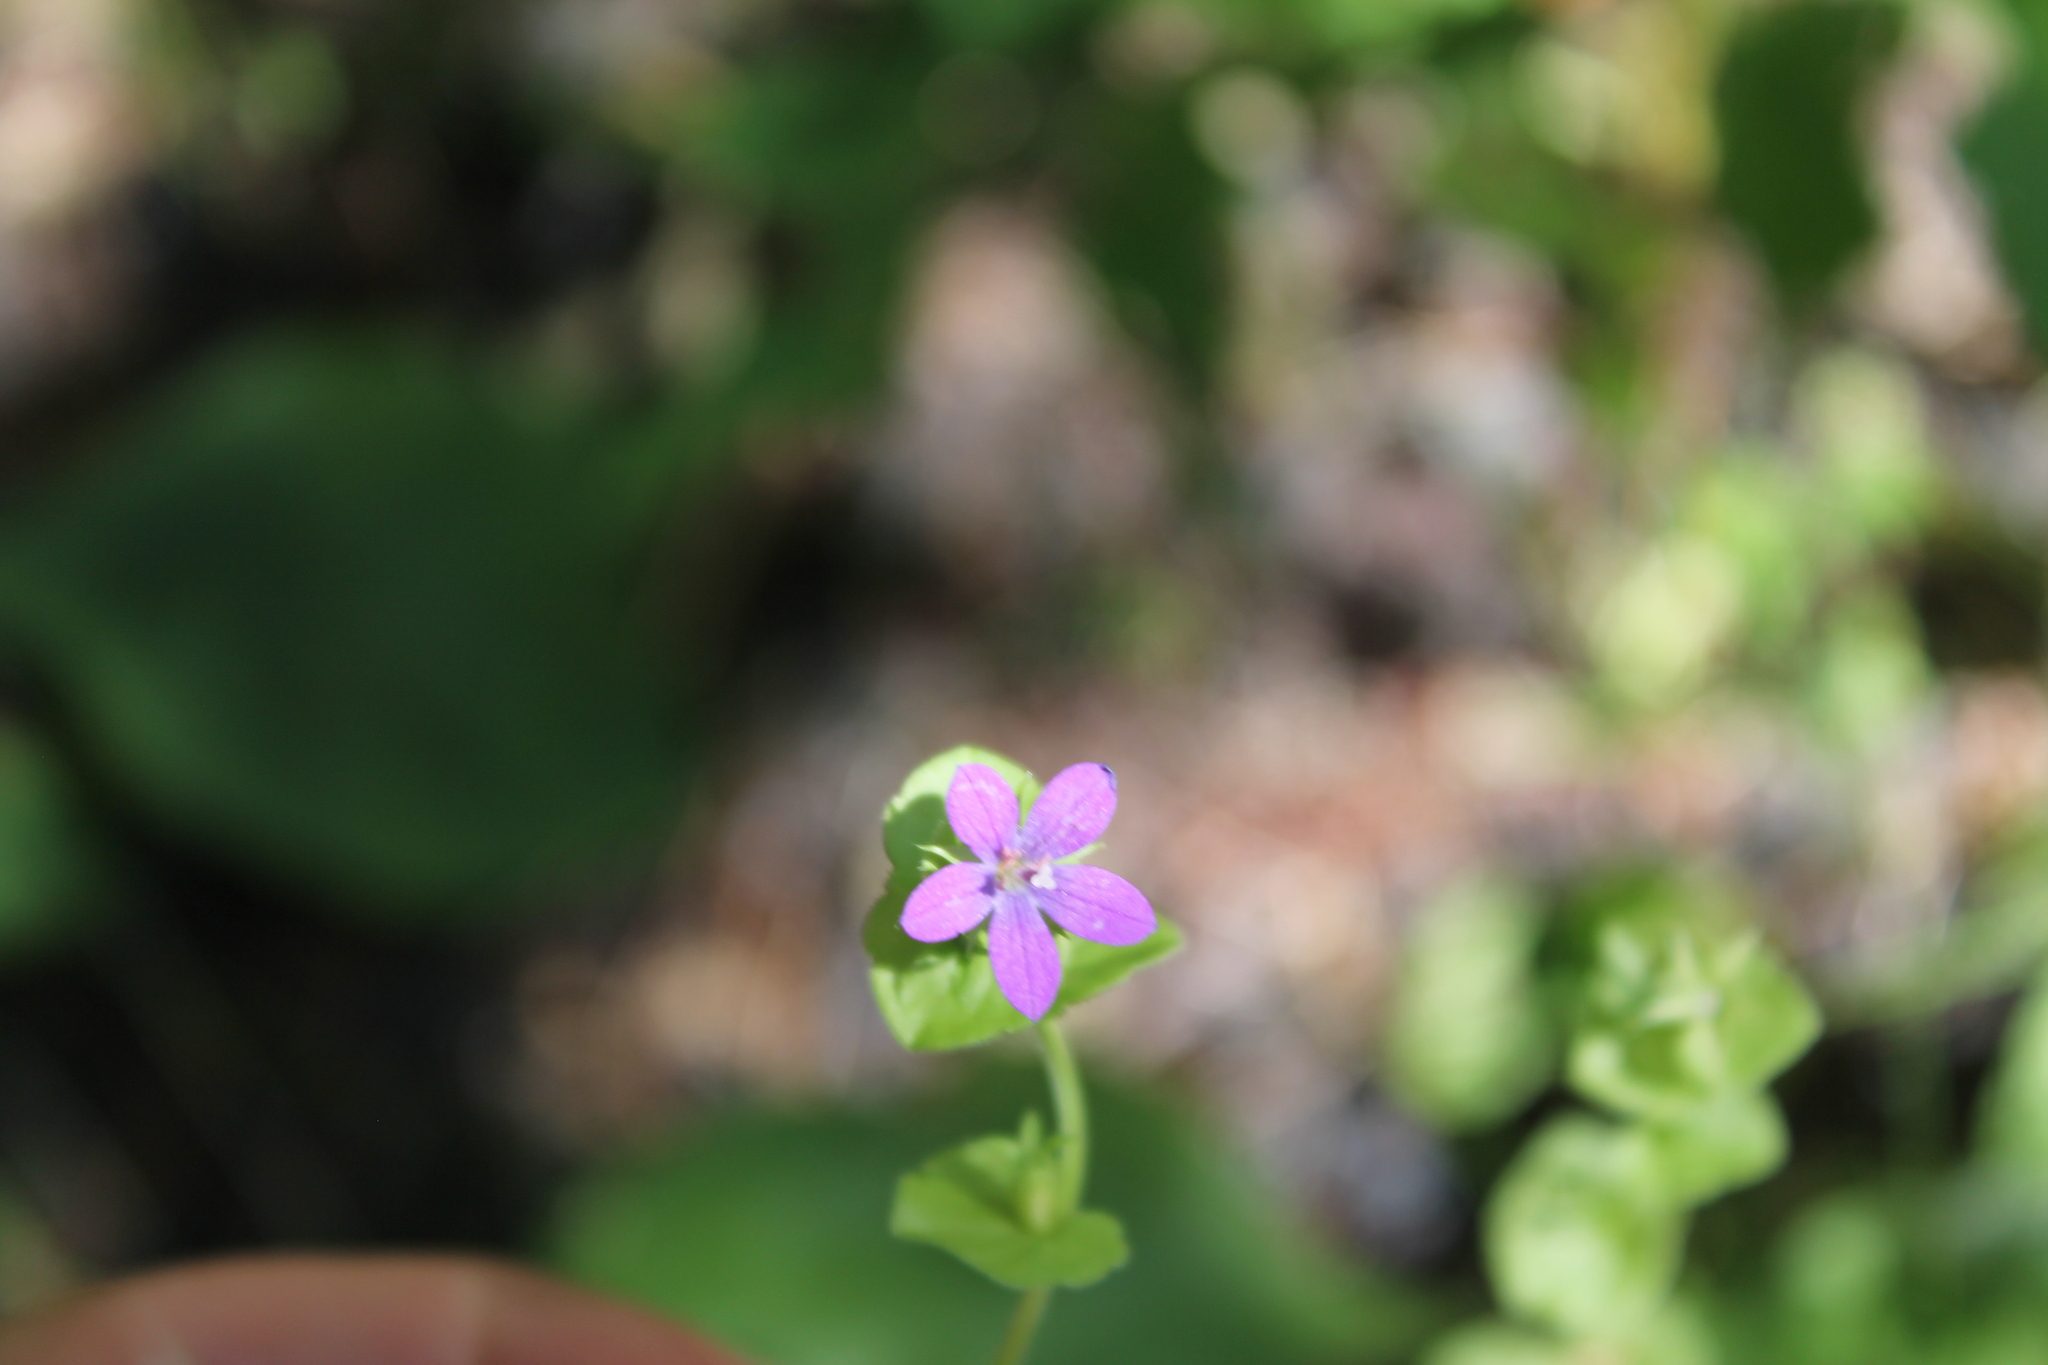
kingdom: Plantae
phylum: Tracheophyta
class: Magnoliopsida
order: Asterales
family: Campanulaceae
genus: Triodanis
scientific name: Triodanis perfoliata
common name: Clasping venus' looking-glass
